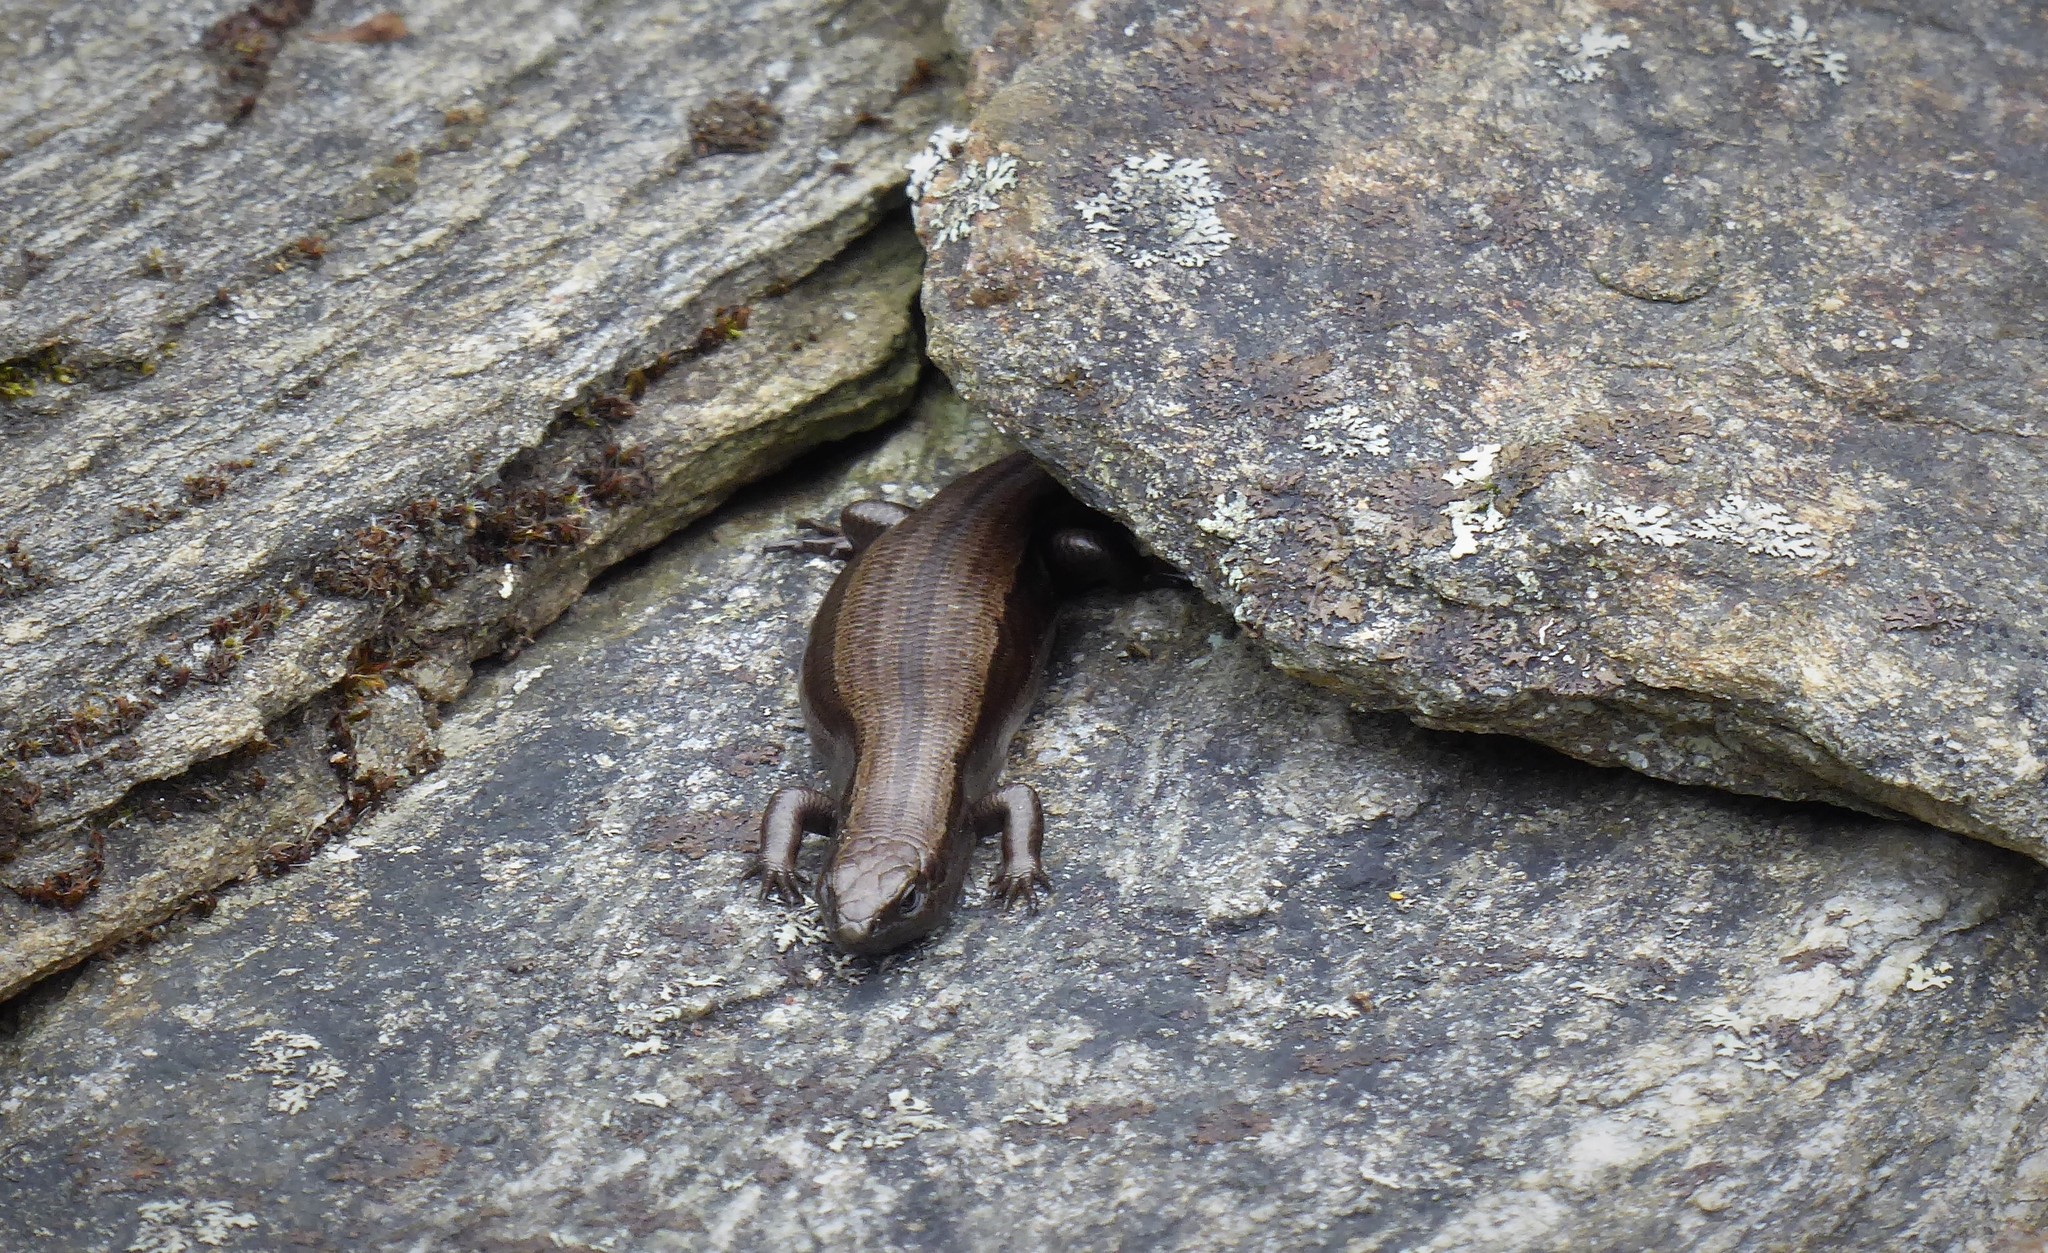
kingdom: Animalia
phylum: Chordata
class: Squamata
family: Scincidae
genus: Oligosoma
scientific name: Oligosoma polychroma
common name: Common new zealand skink
